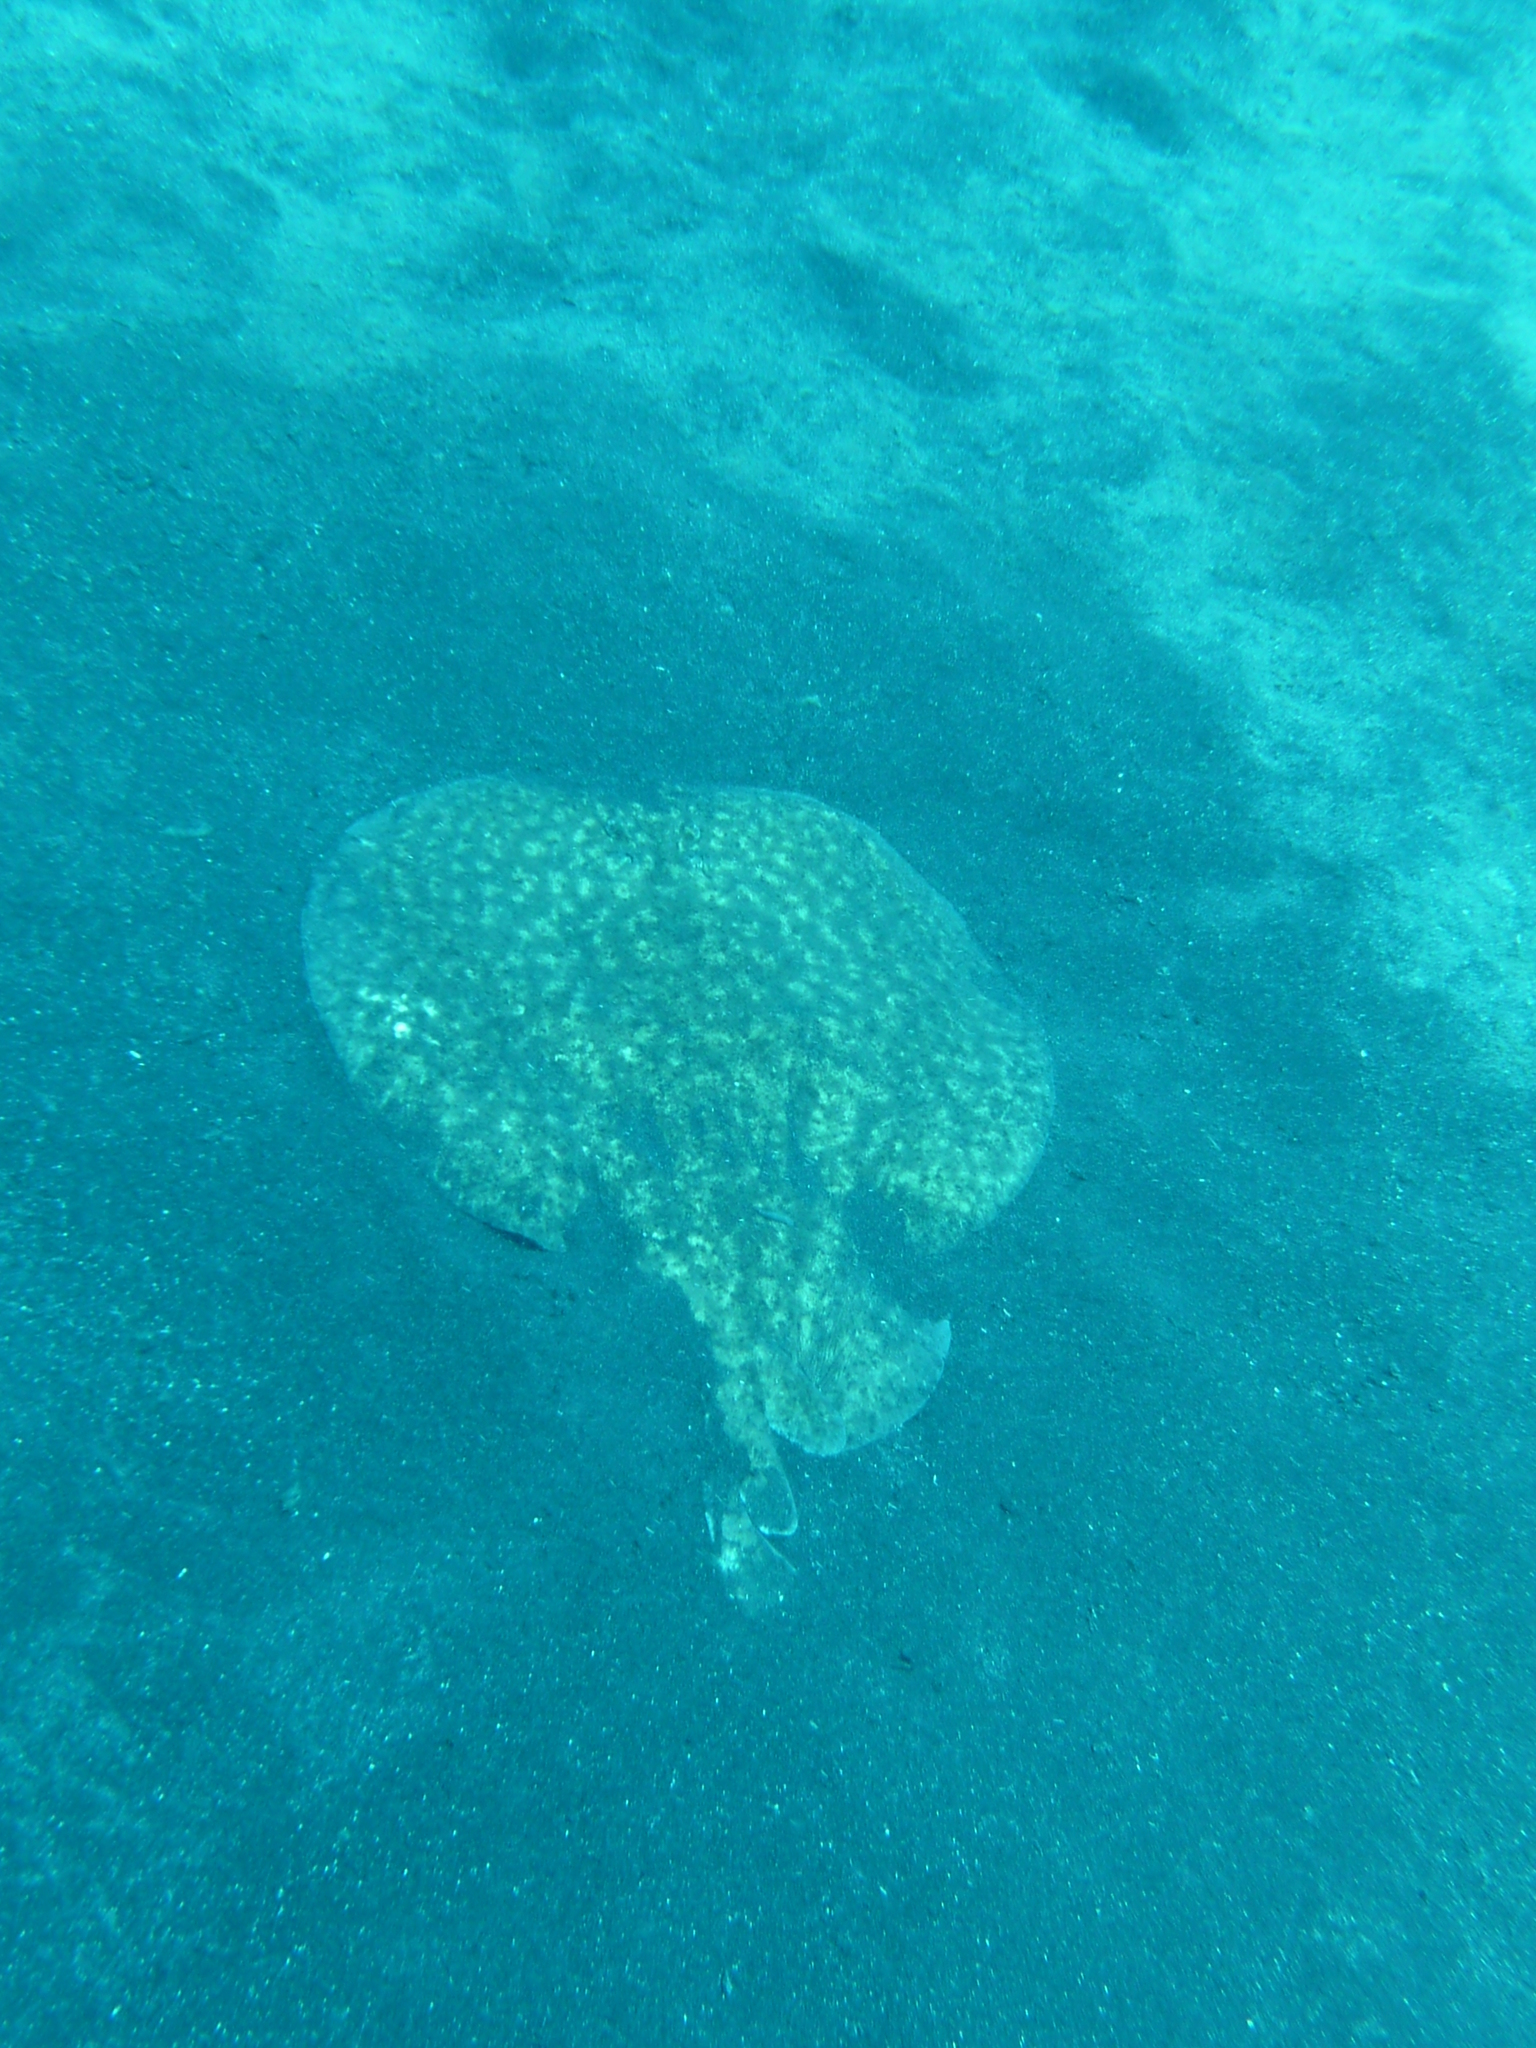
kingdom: Animalia
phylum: Chordata
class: Elasmobranchii
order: Torpediniformes
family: Torpedinidae
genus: Torpedo
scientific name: Torpedo marmorata
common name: Marbled electric ray
